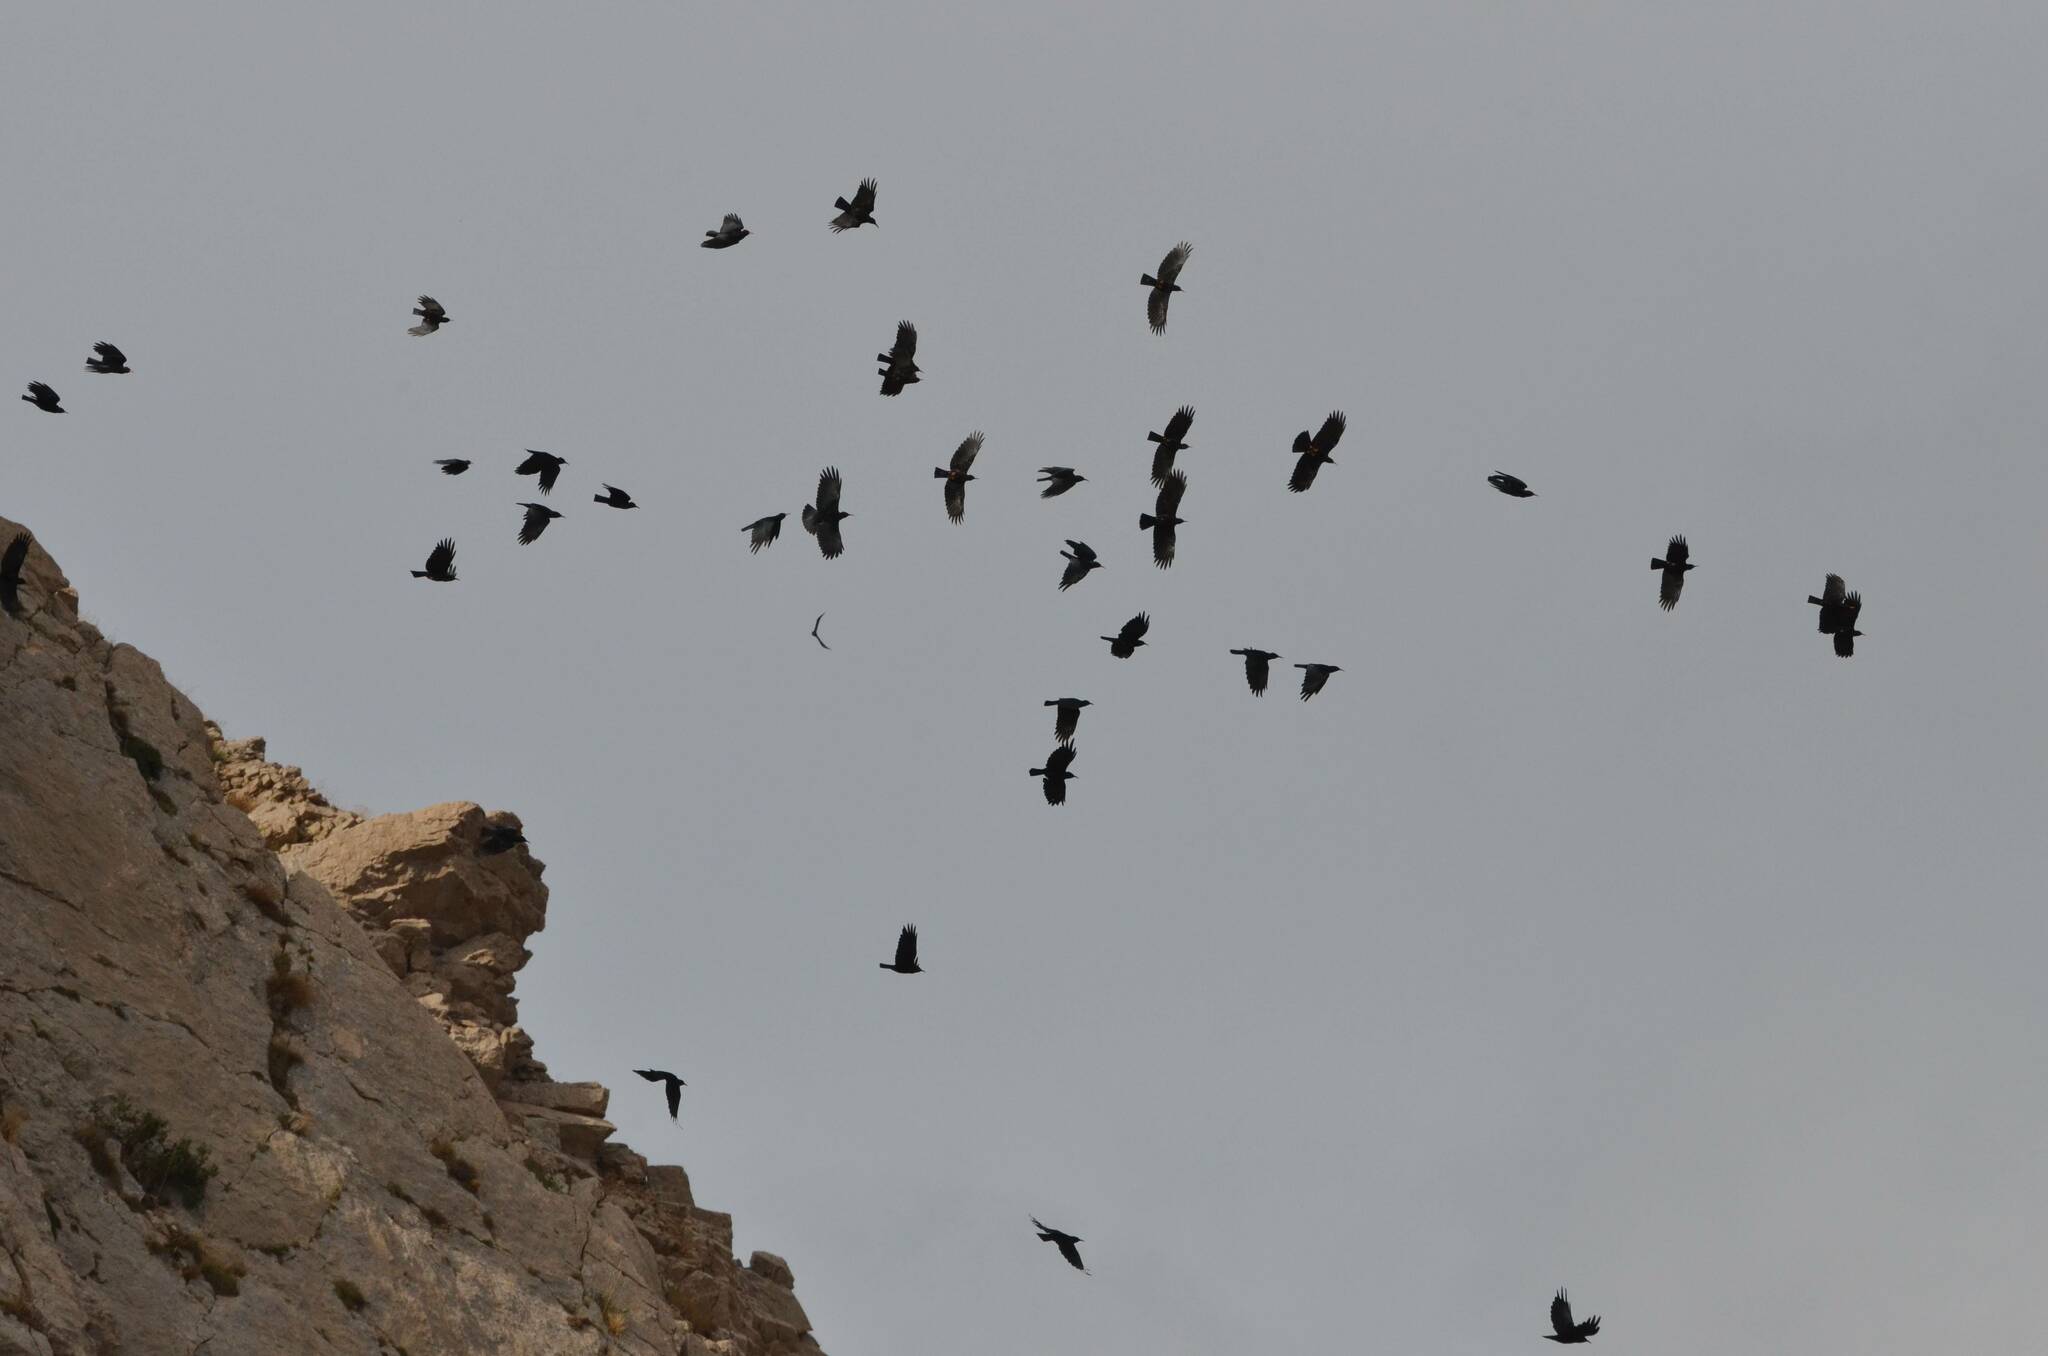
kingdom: Animalia
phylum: Chordata
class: Aves
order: Passeriformes
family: Corvidae
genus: Pyrrhocorax
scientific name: Pyrrhocorax pyrrhocorax
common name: Red-billed chough
